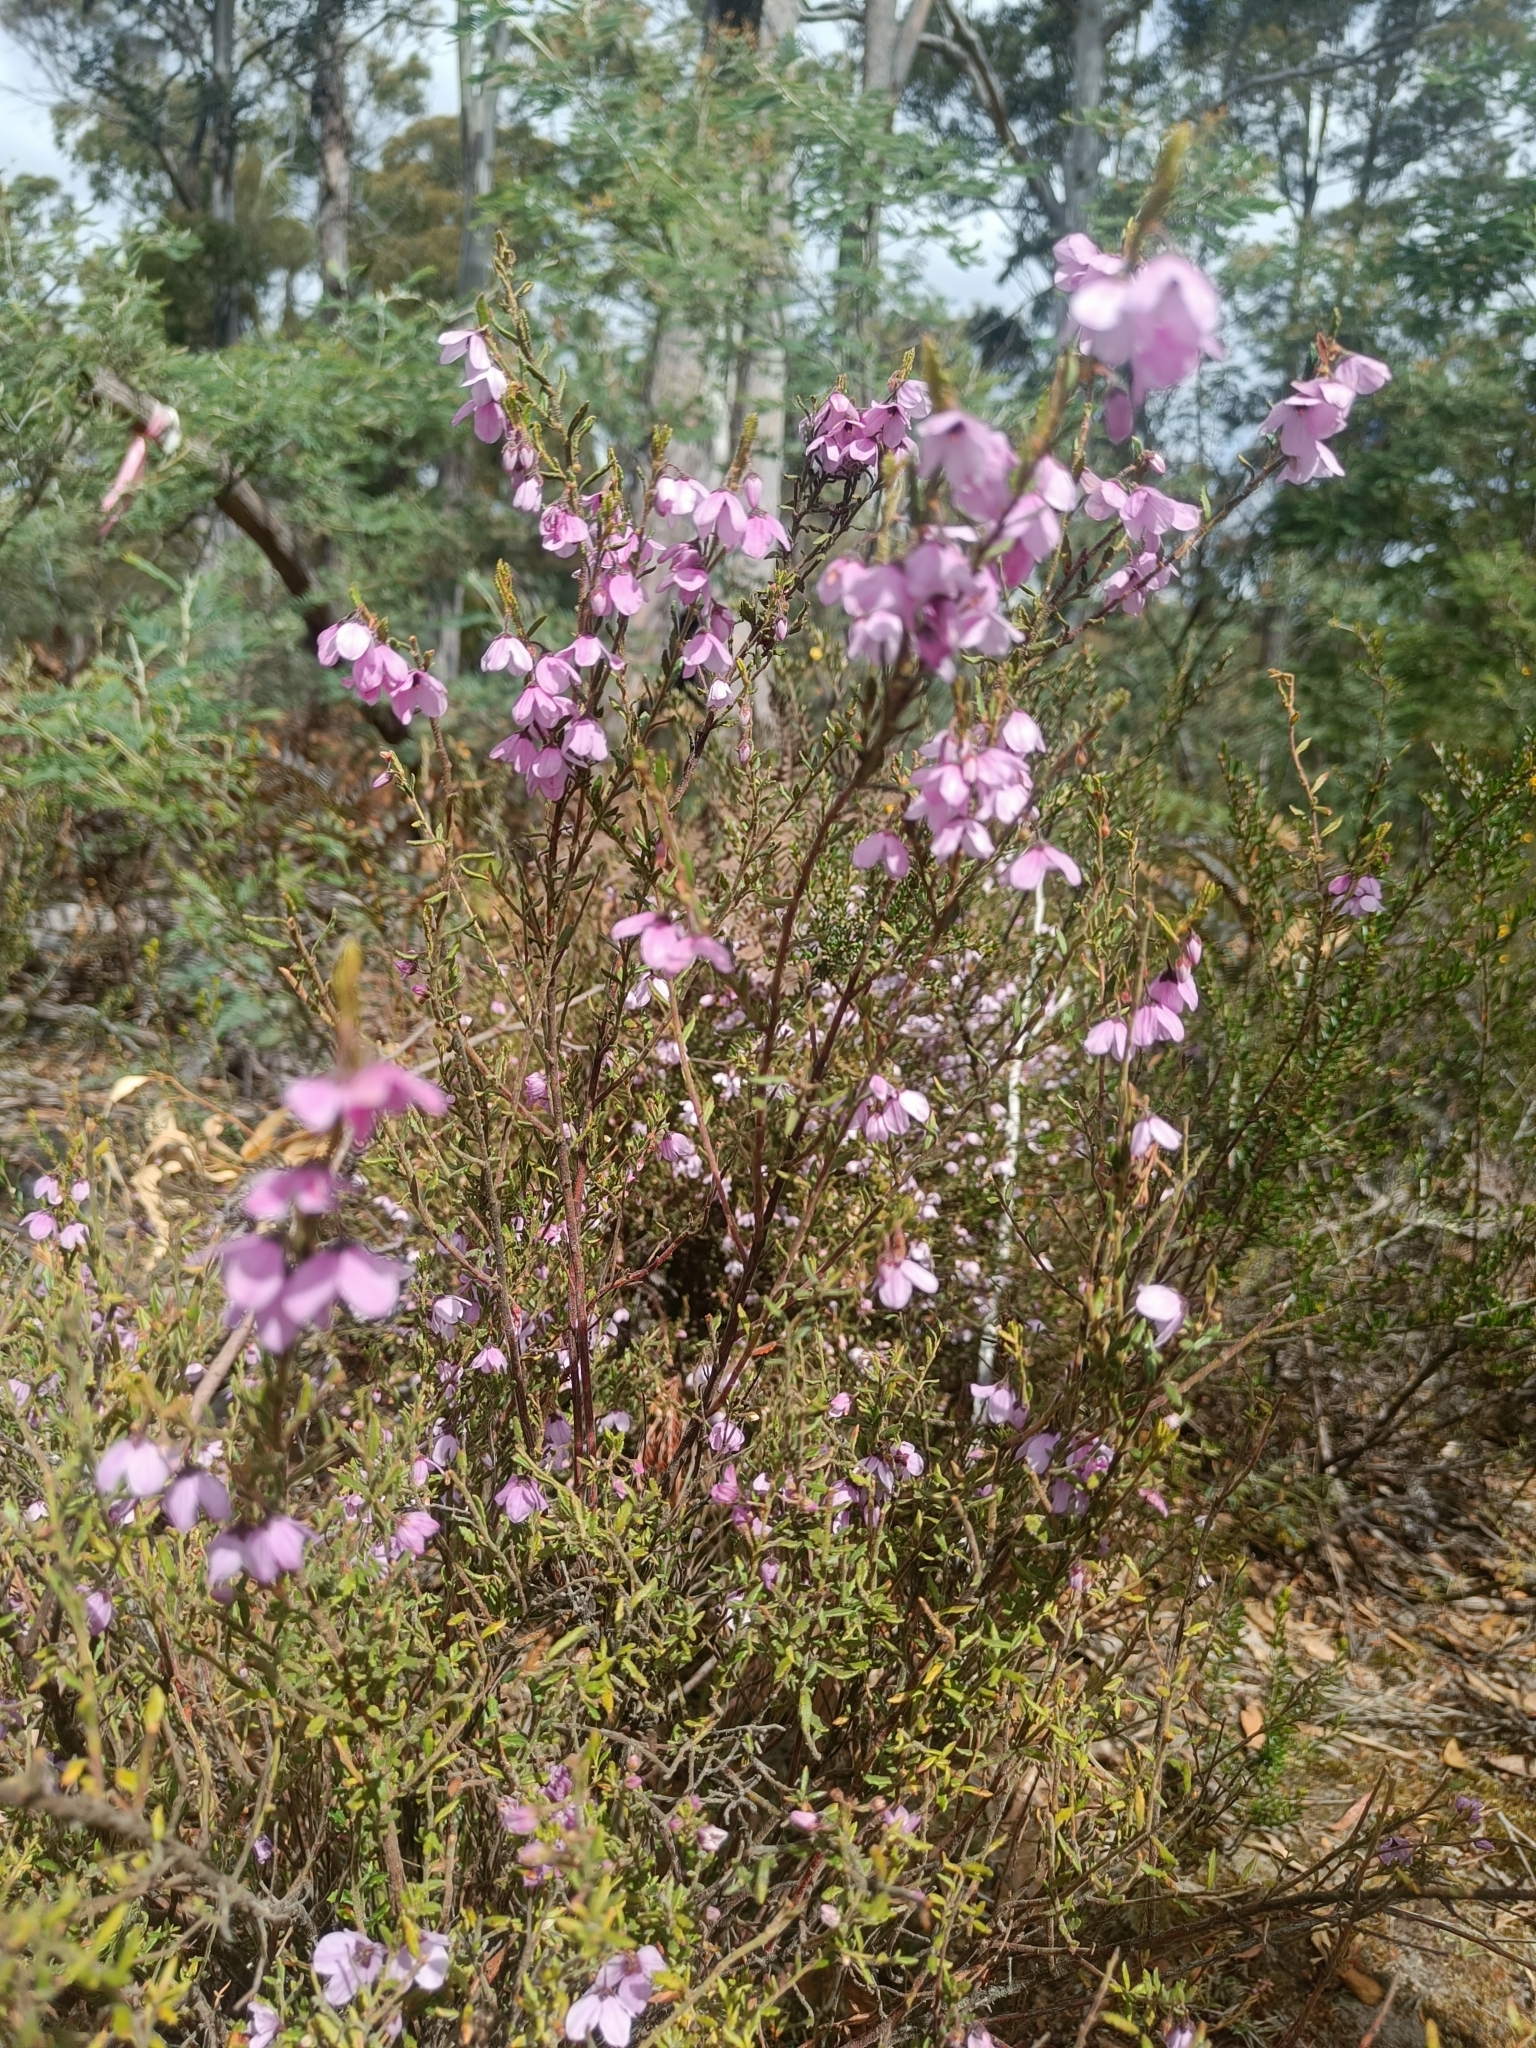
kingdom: Plantae
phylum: Tracheophyta
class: Magnoliopsida
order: Oxalidales
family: Elaeocarpaceae
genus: Tetratheca
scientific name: Tetratheca labillardierei
